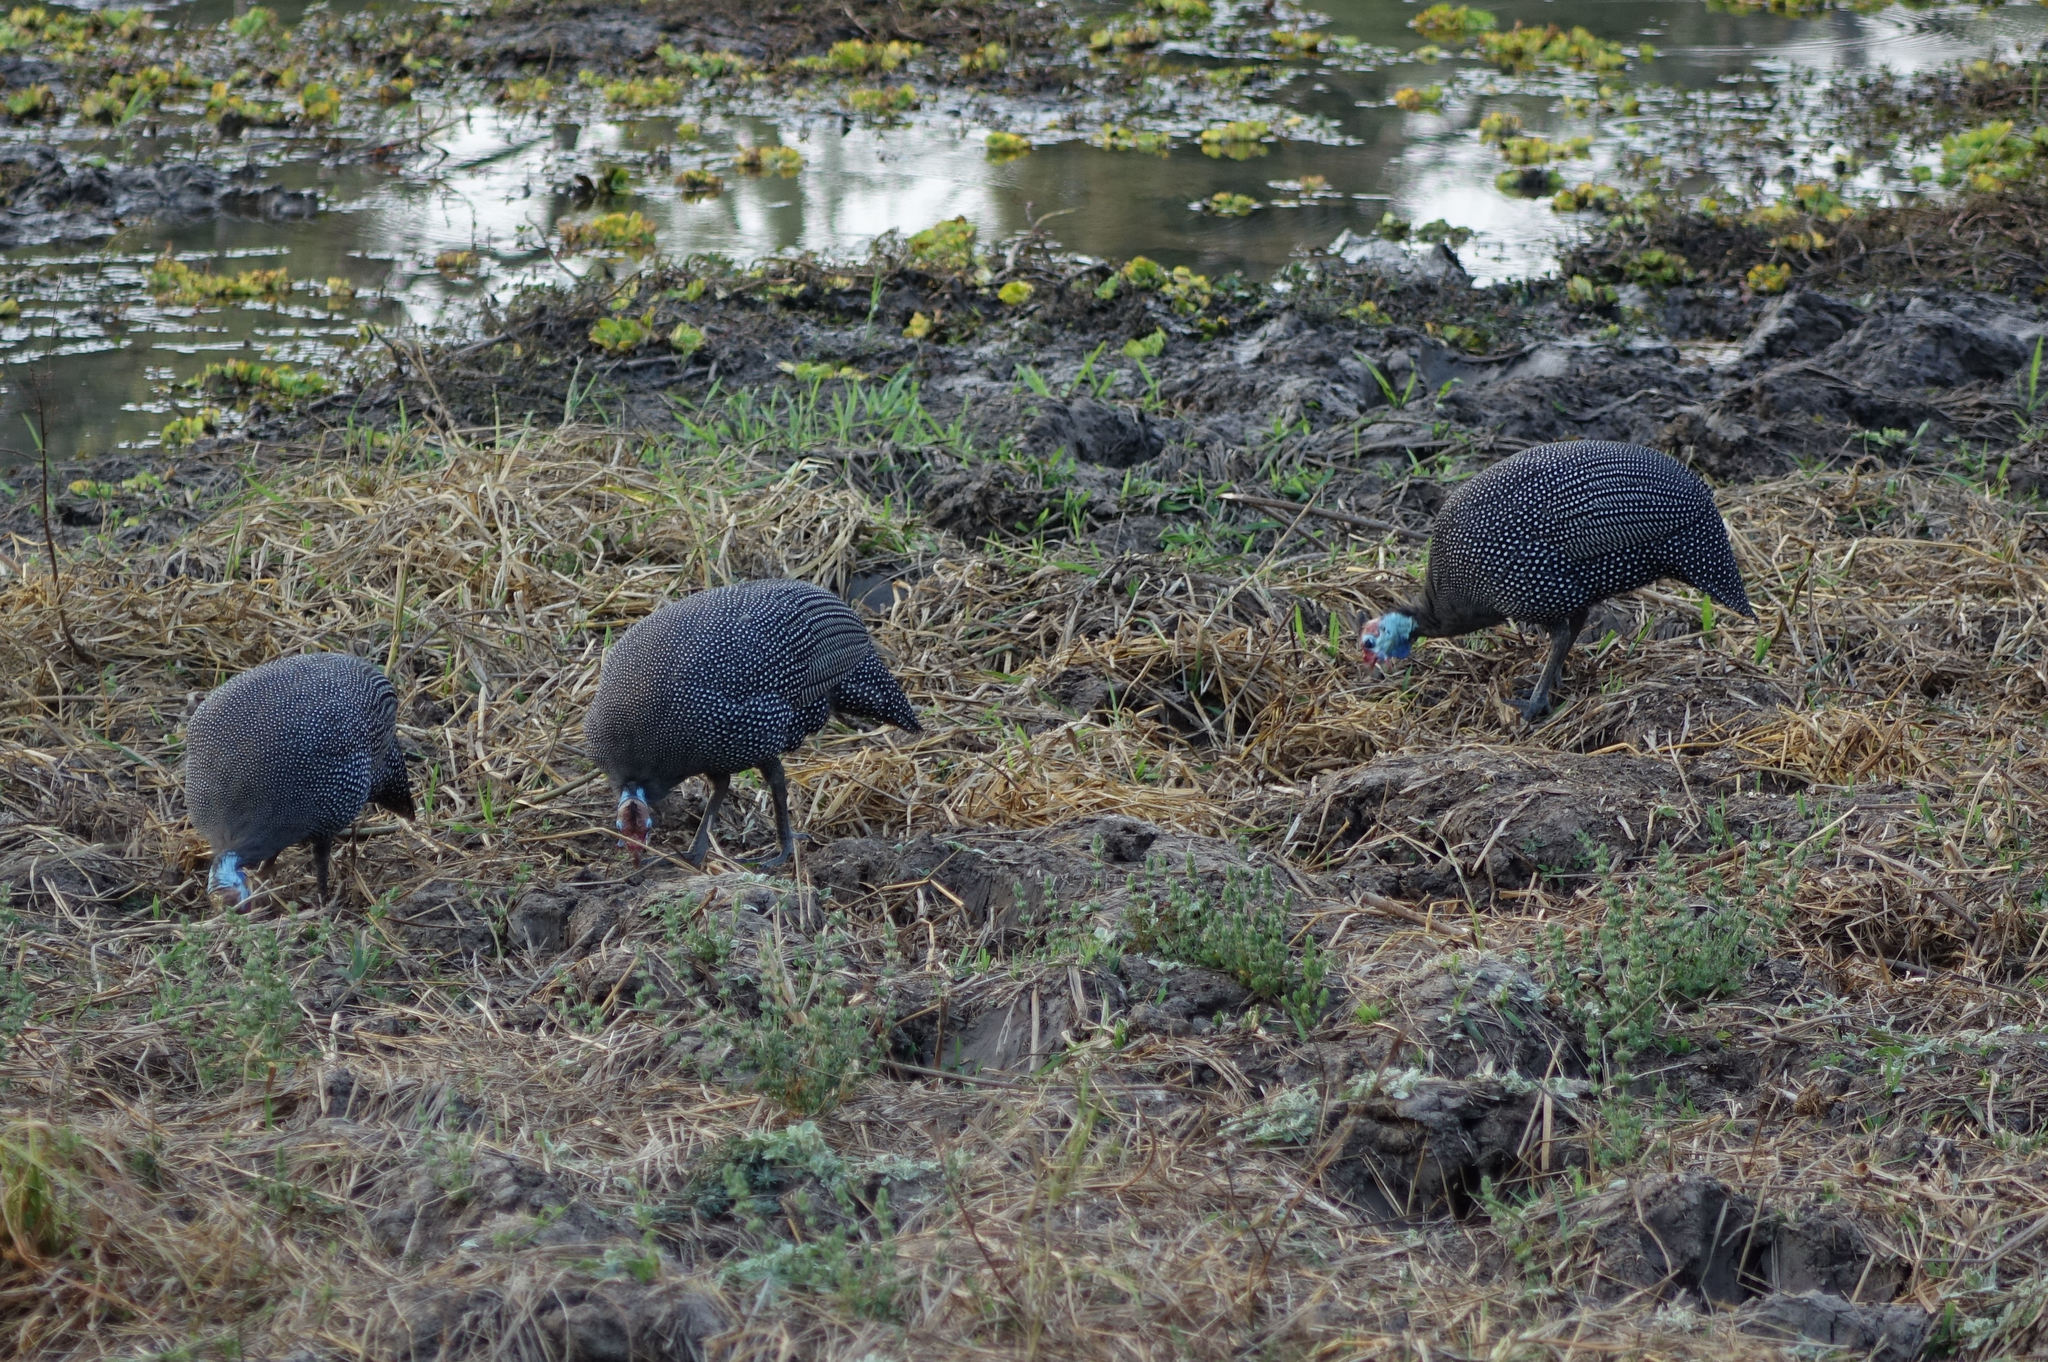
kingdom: Animalia
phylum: Chordata
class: Aves
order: Galliformes
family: Numididae
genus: Numida
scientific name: Numida meleagris
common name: Helmeted guineafowl
